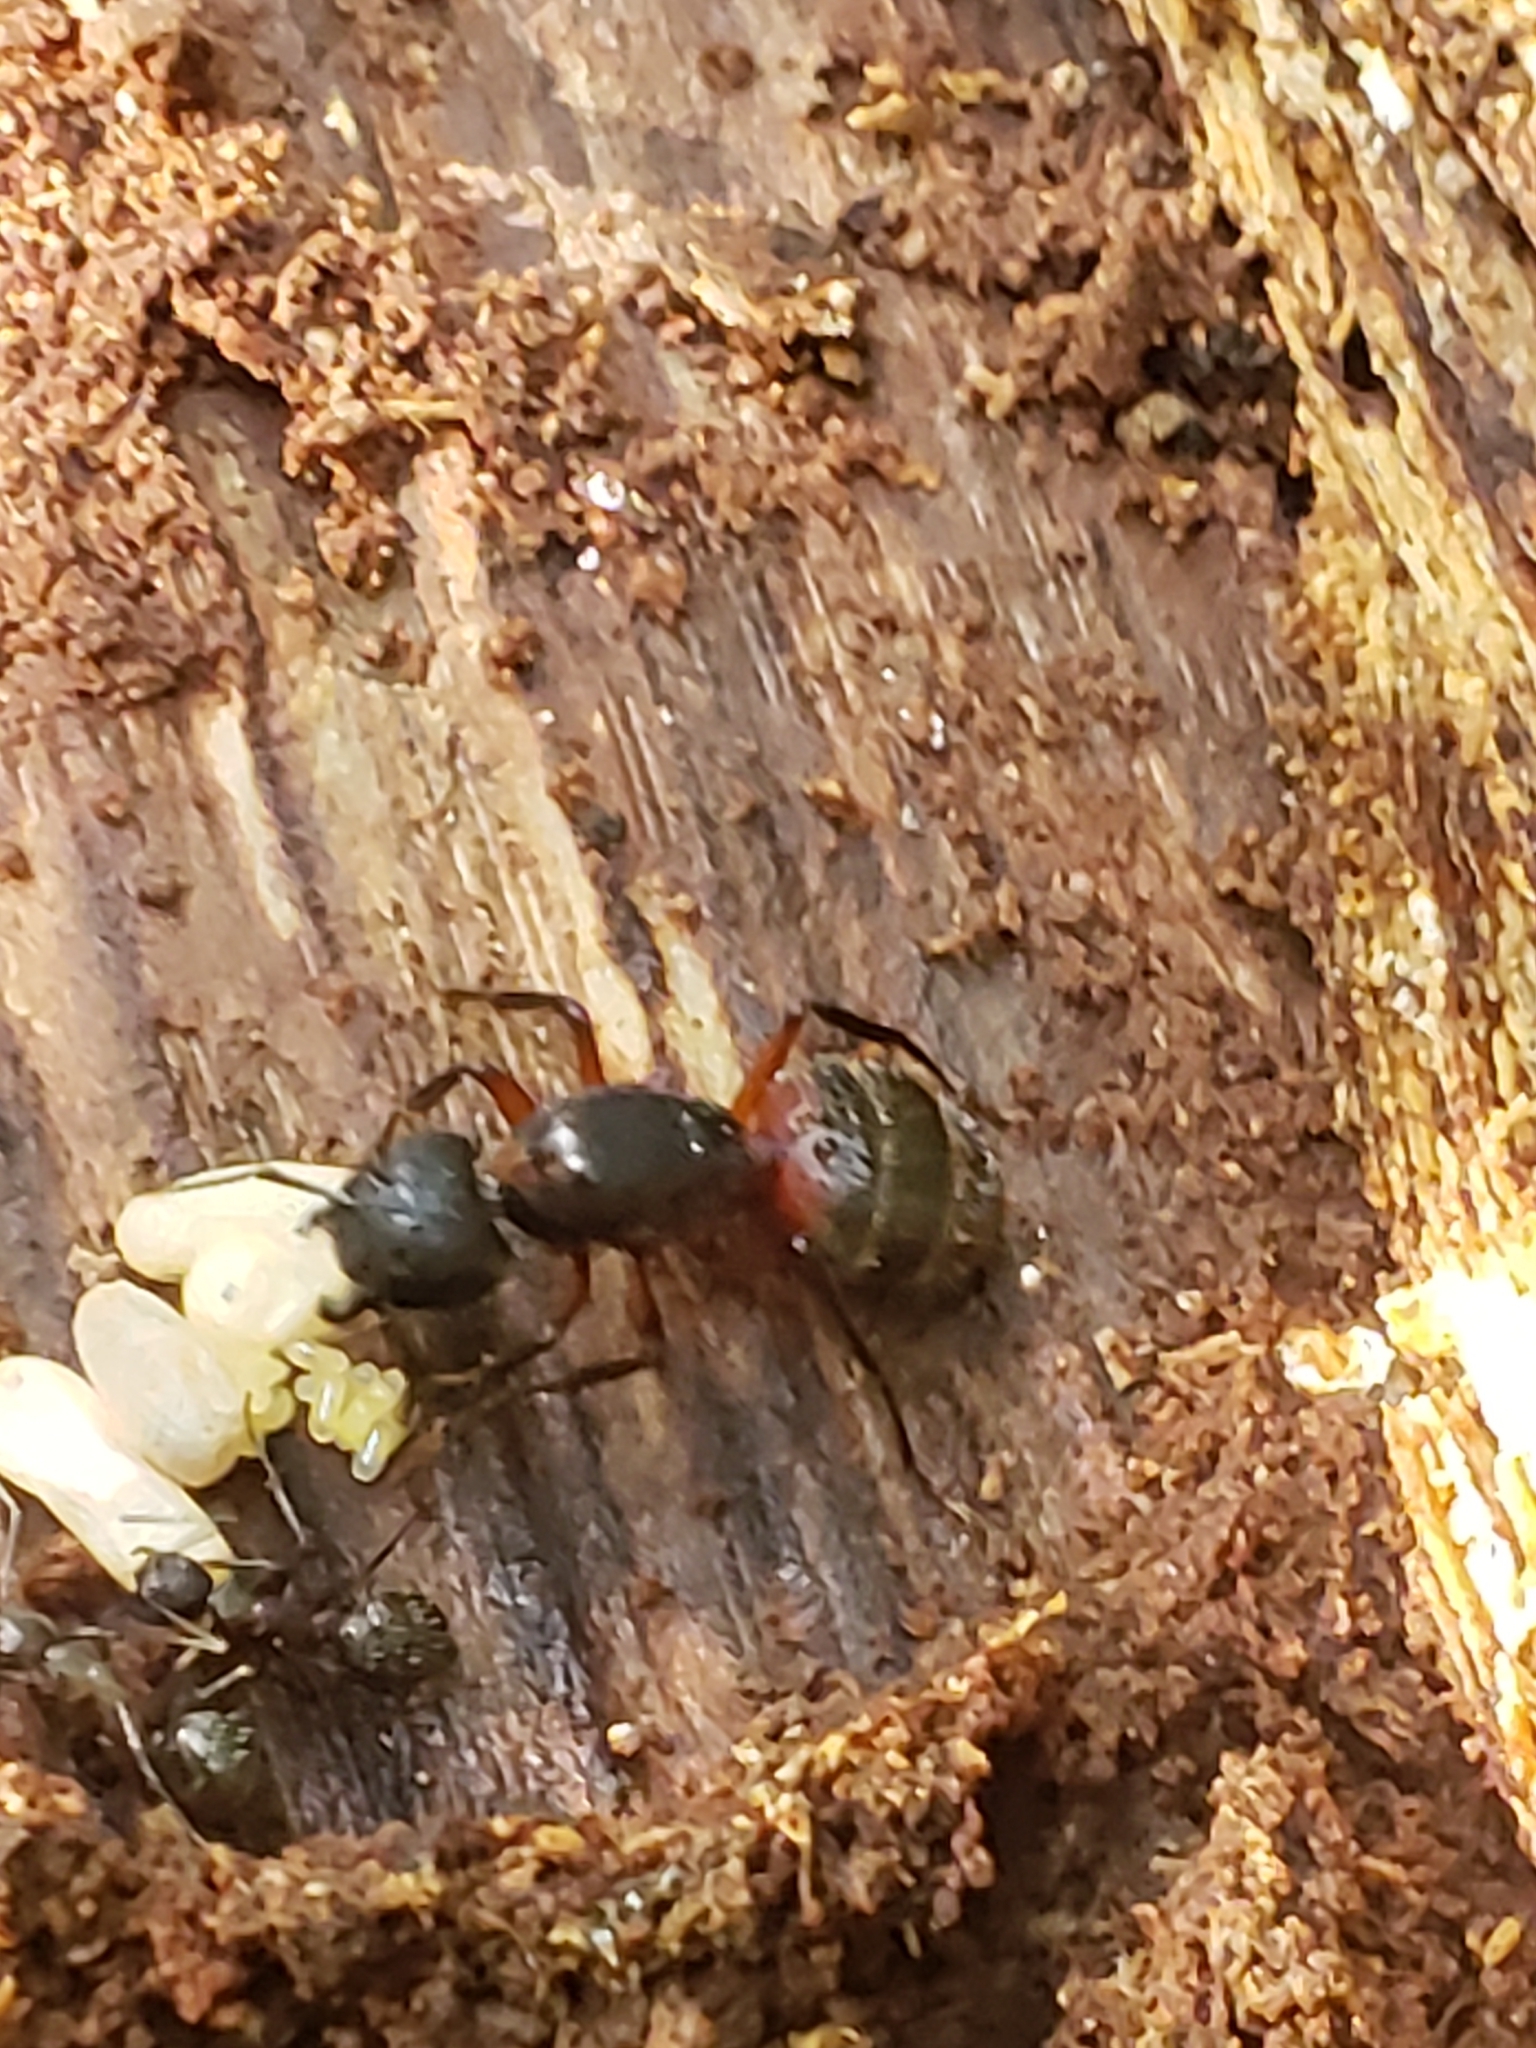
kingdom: Animalia
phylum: Arthropoda
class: Insecta
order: Hymenoptera
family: Formicidae
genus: Camponotus
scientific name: Camponotus chromaiodes
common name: Red carpenter ant
